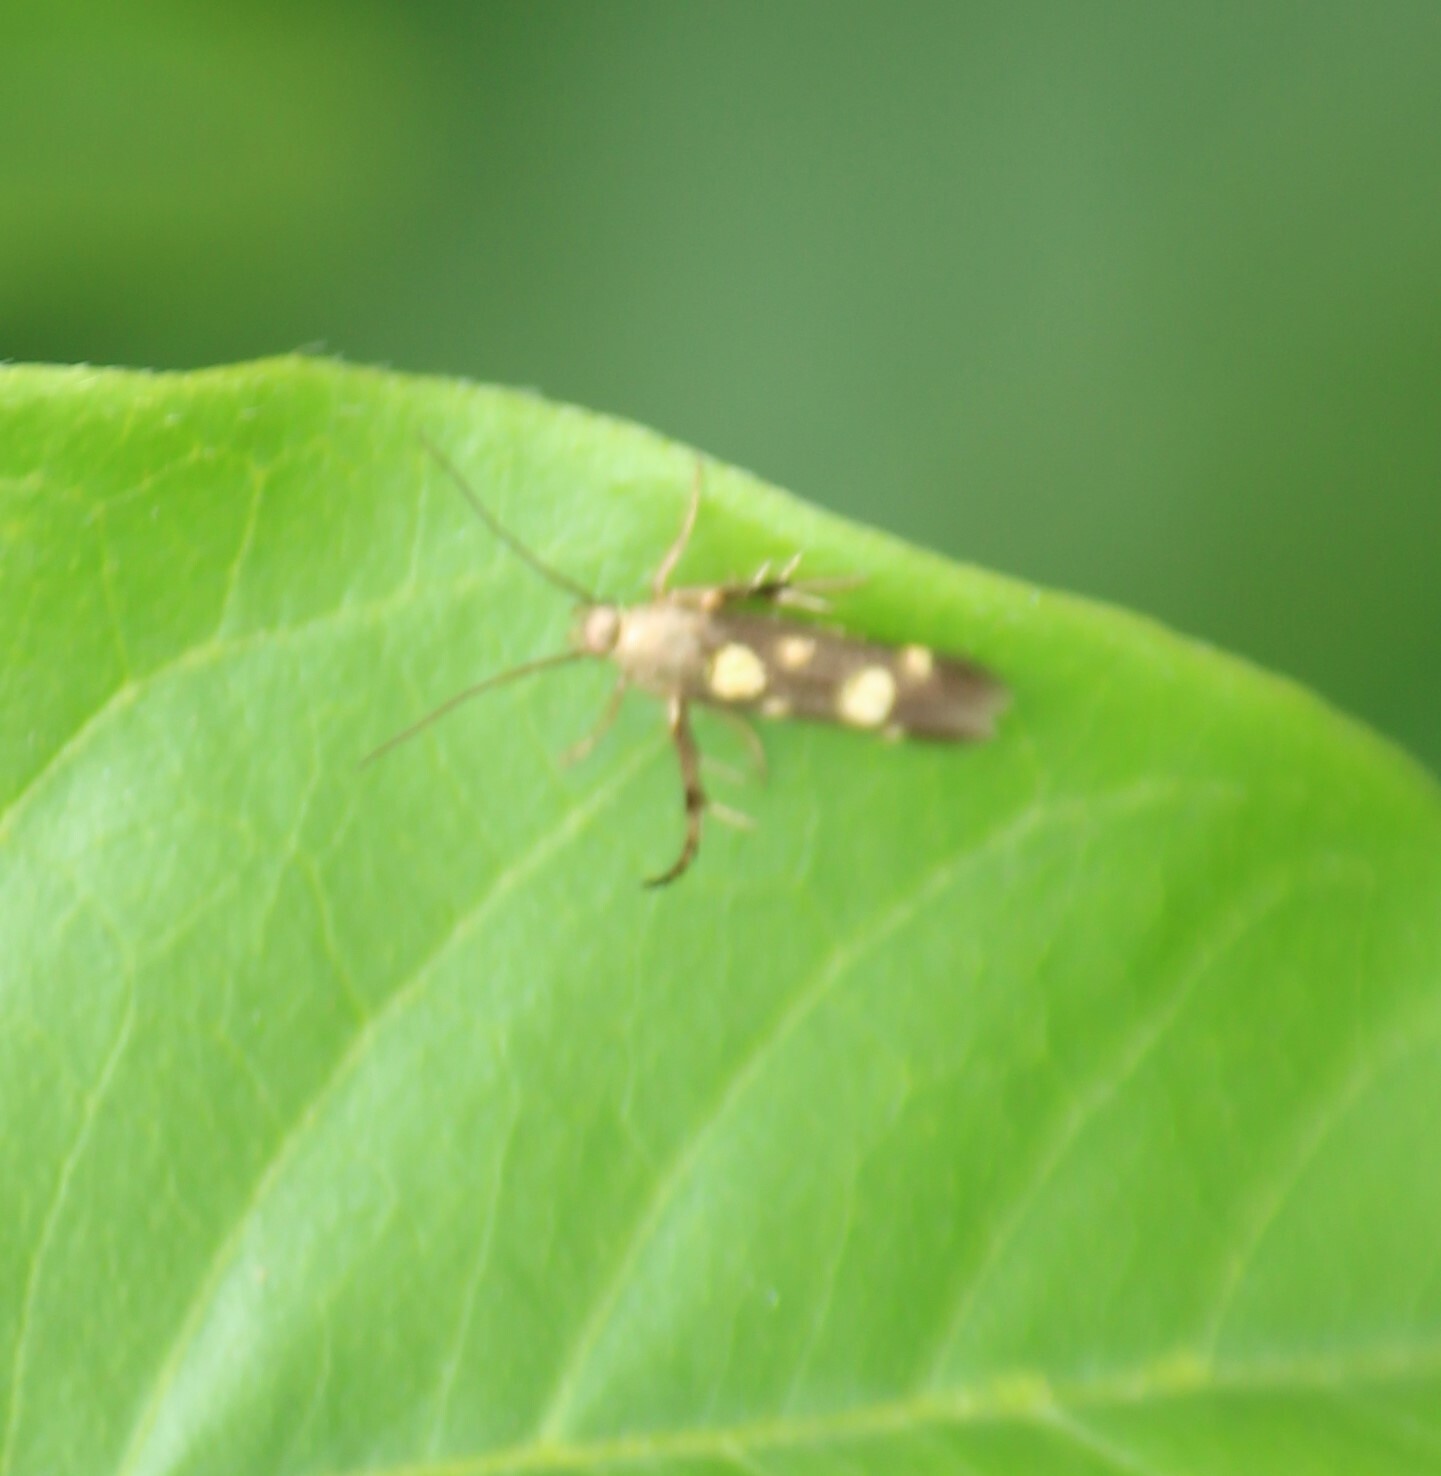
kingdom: Animalia
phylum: Arthropoda
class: Insecta
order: Lepidoptera
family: Scythrididae
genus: Eretmocera
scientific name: Eretmocera impactella
